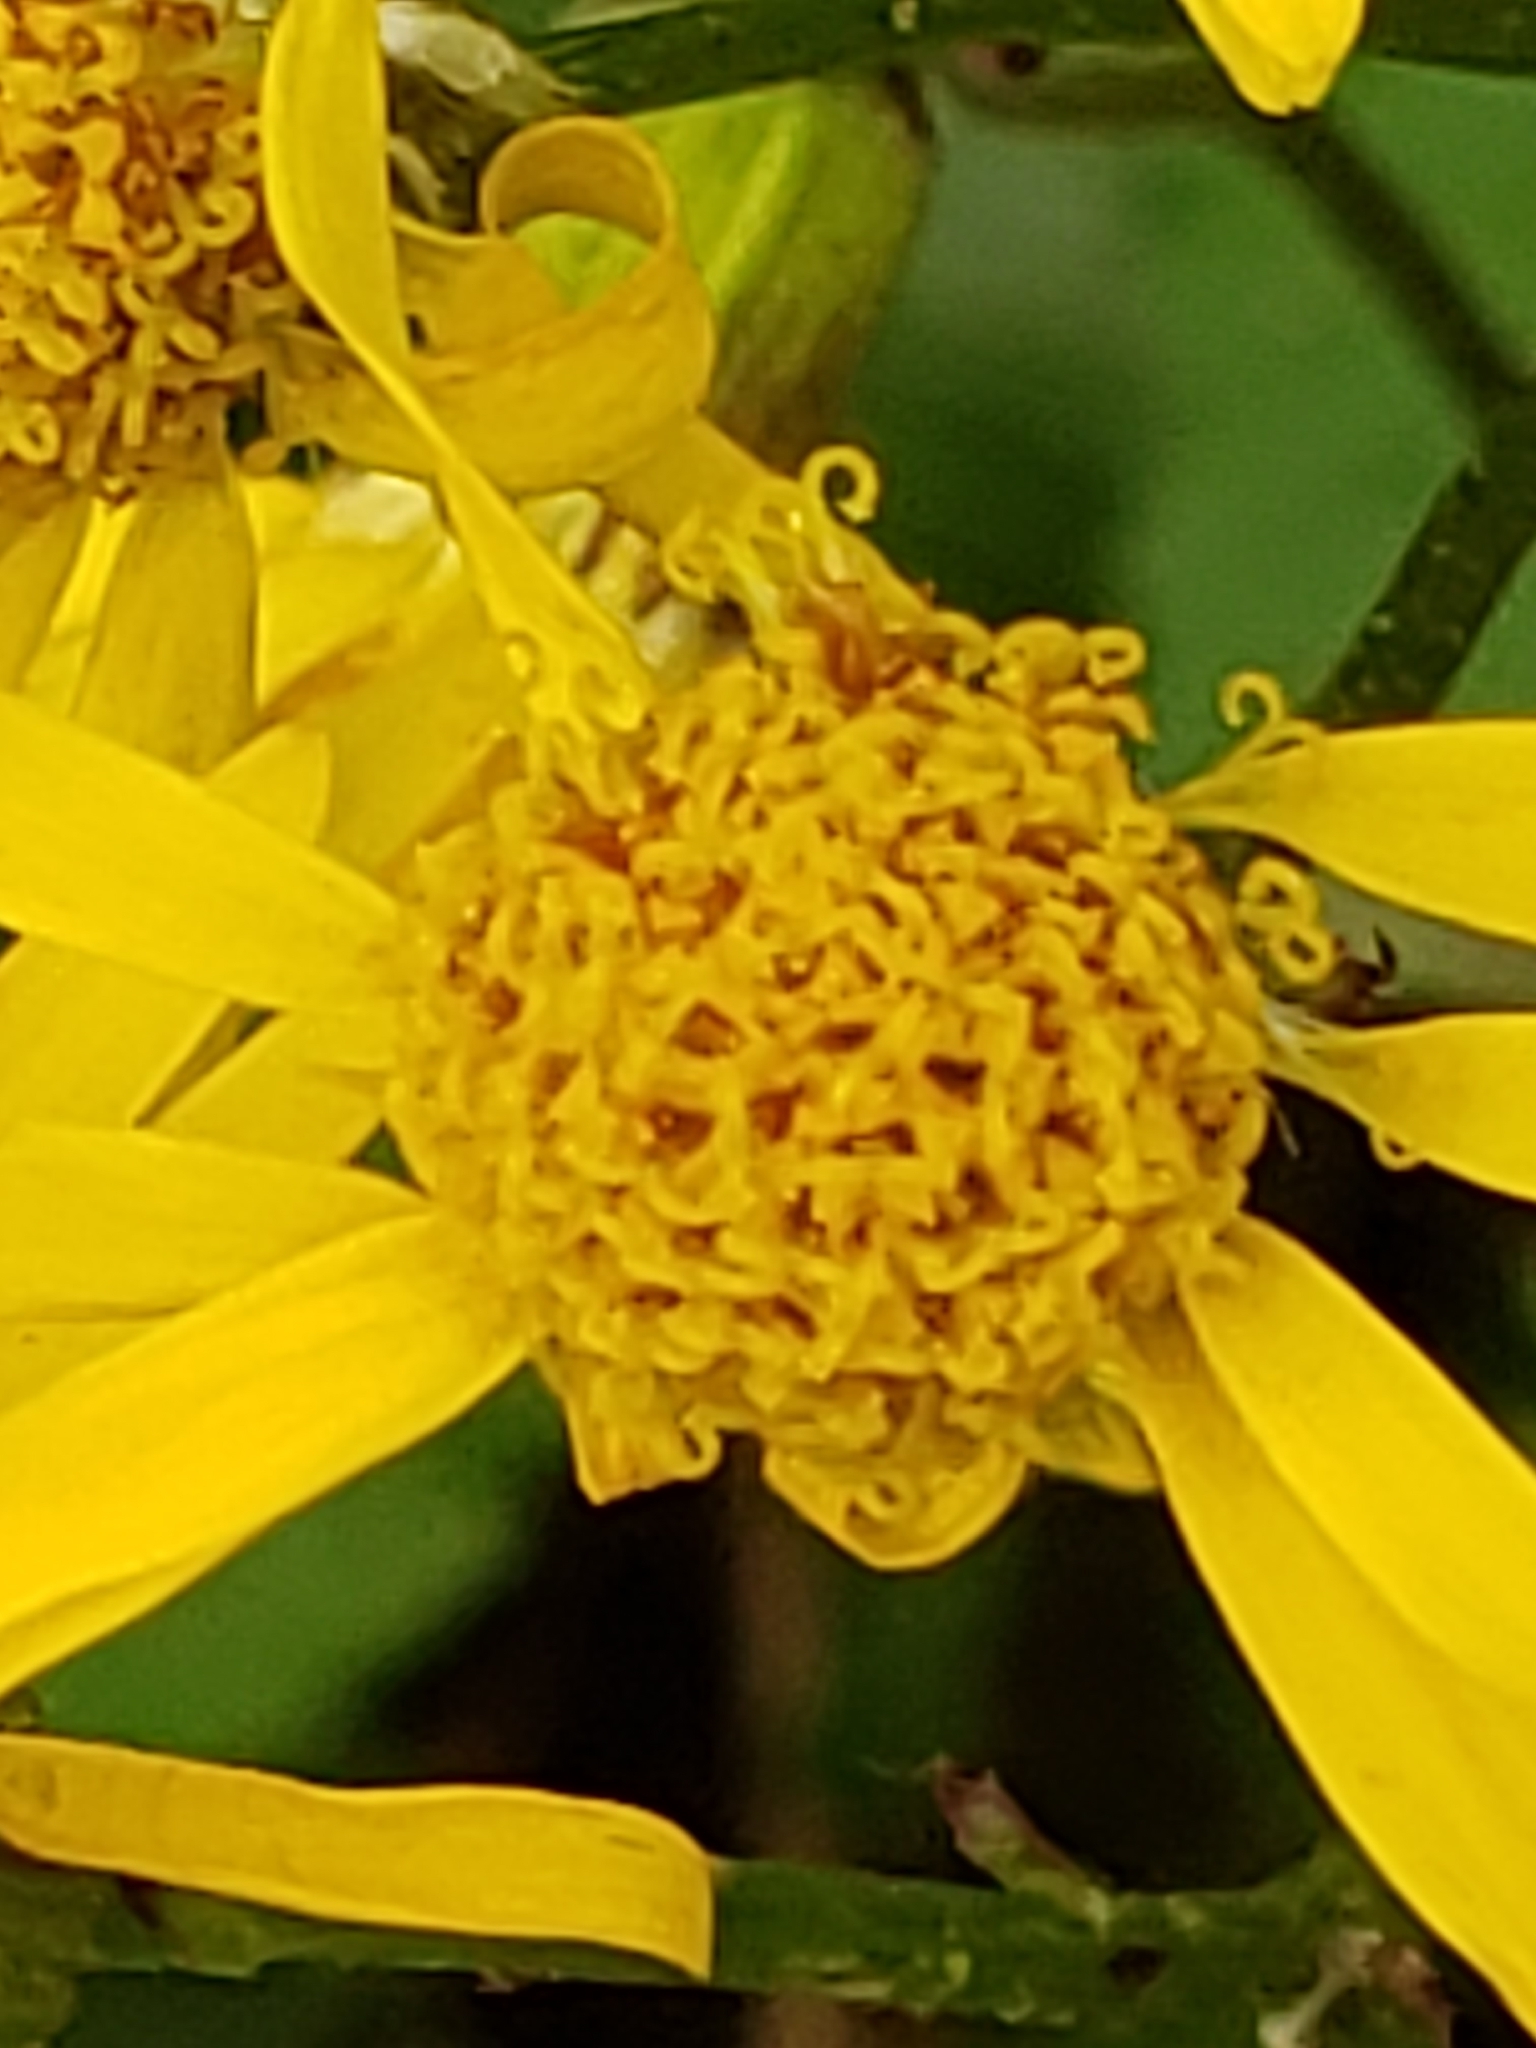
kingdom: Plantae
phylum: Tracheophyta
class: Magnoliopsida
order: Asterales
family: Asteraceae
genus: Packera
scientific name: Packera aurea
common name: Golden groundsel
